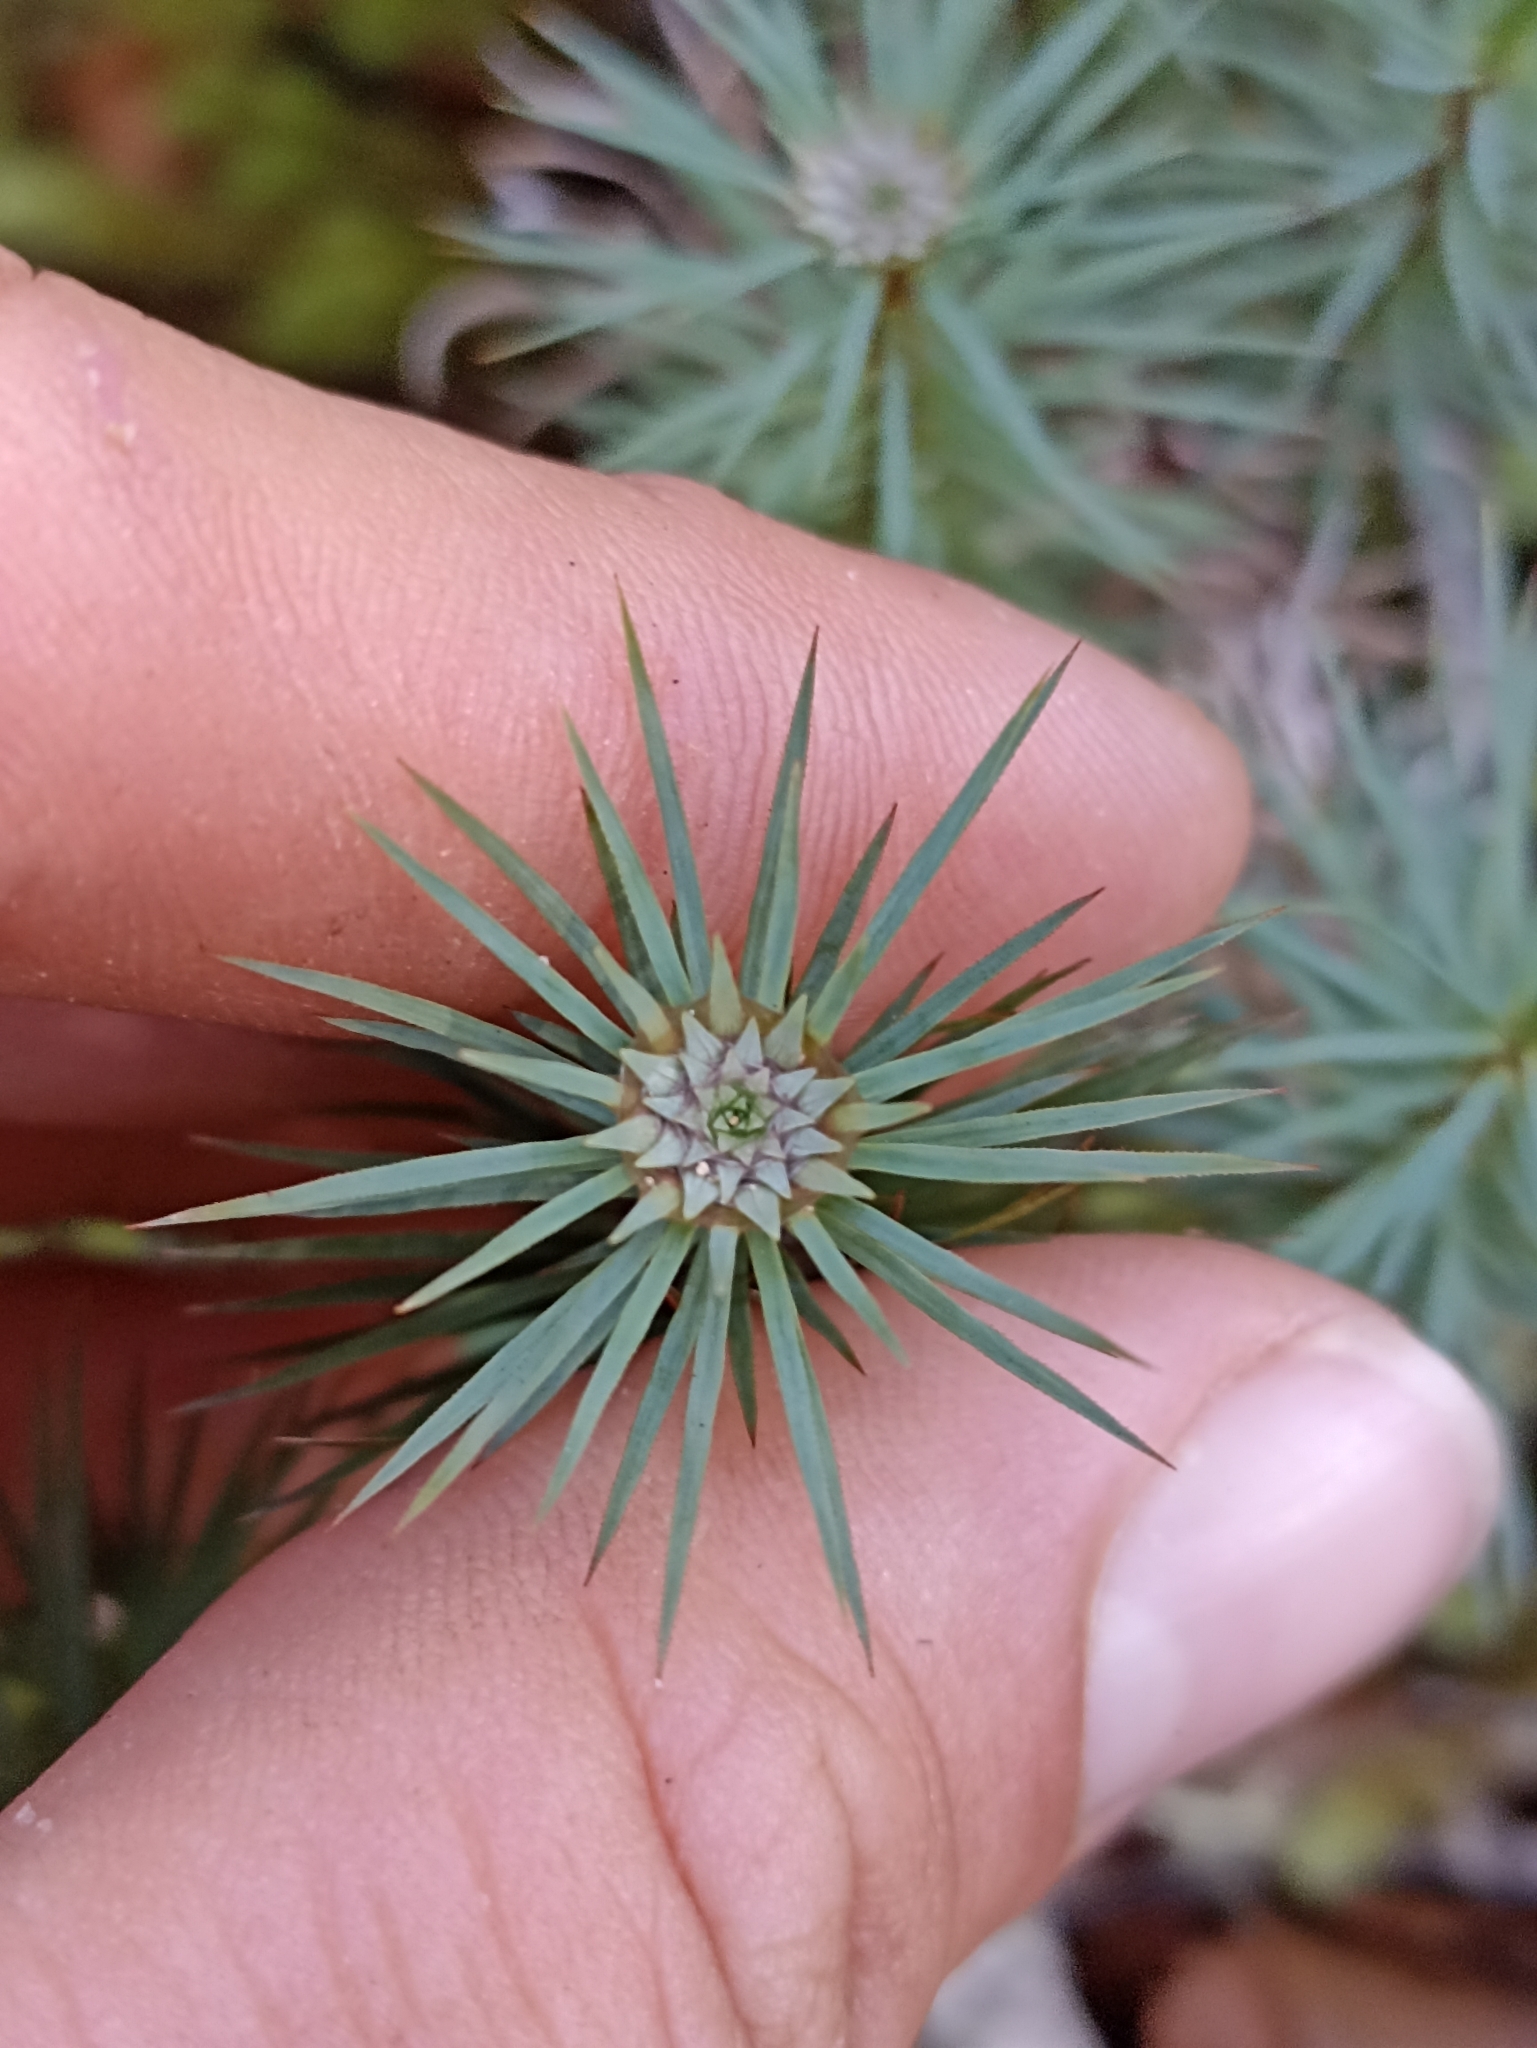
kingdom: Plantae
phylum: Bryophyta
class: Polytrichopsida
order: Polytrichales
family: Polytrichaceae
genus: Dawsonia
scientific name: Dawsonia superba
